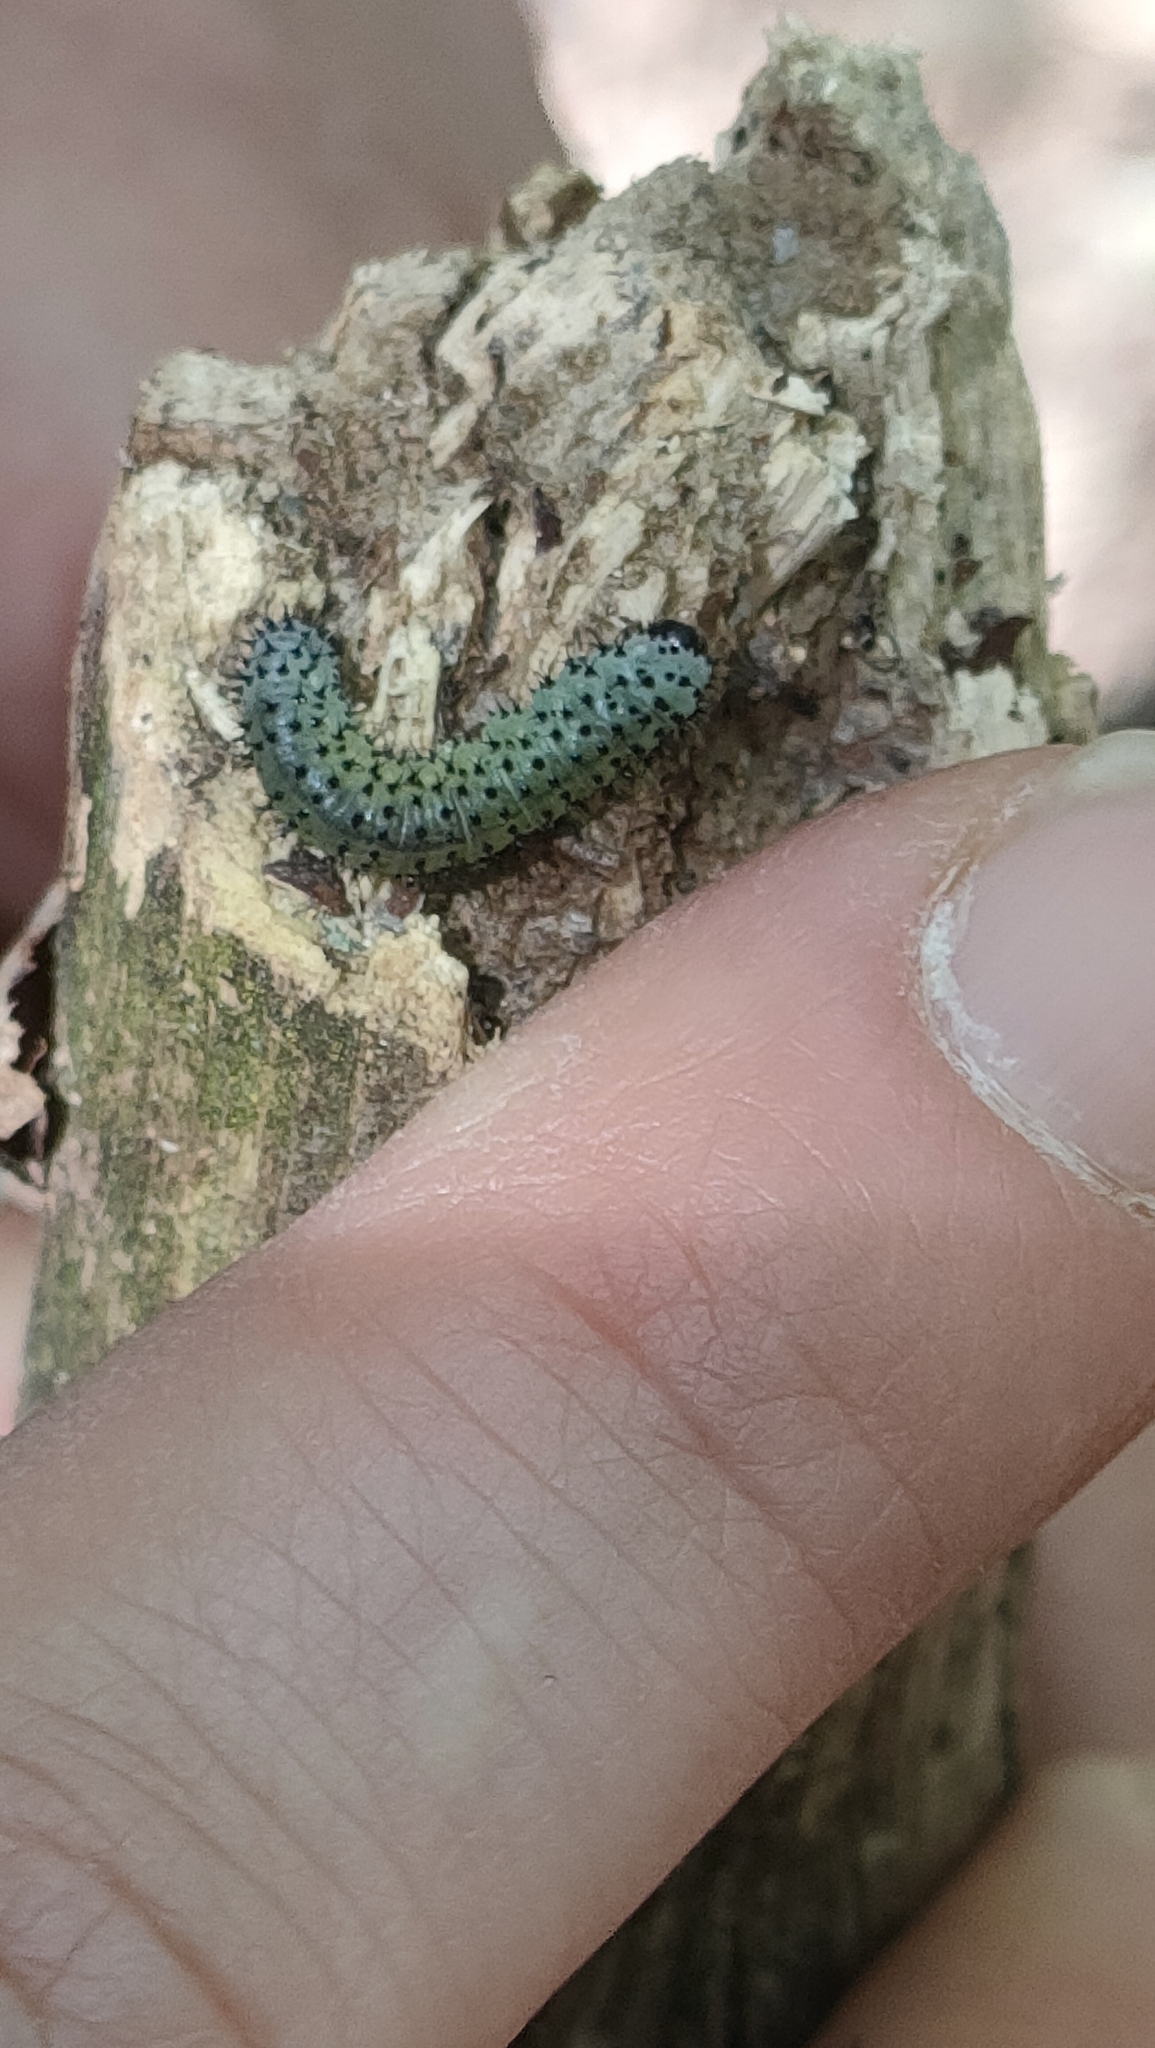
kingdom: Animalia
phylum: Arthropoda
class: Insecta
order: Hymenoptera
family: Tenthredinidae
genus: Periclista
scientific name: Periclista albida
